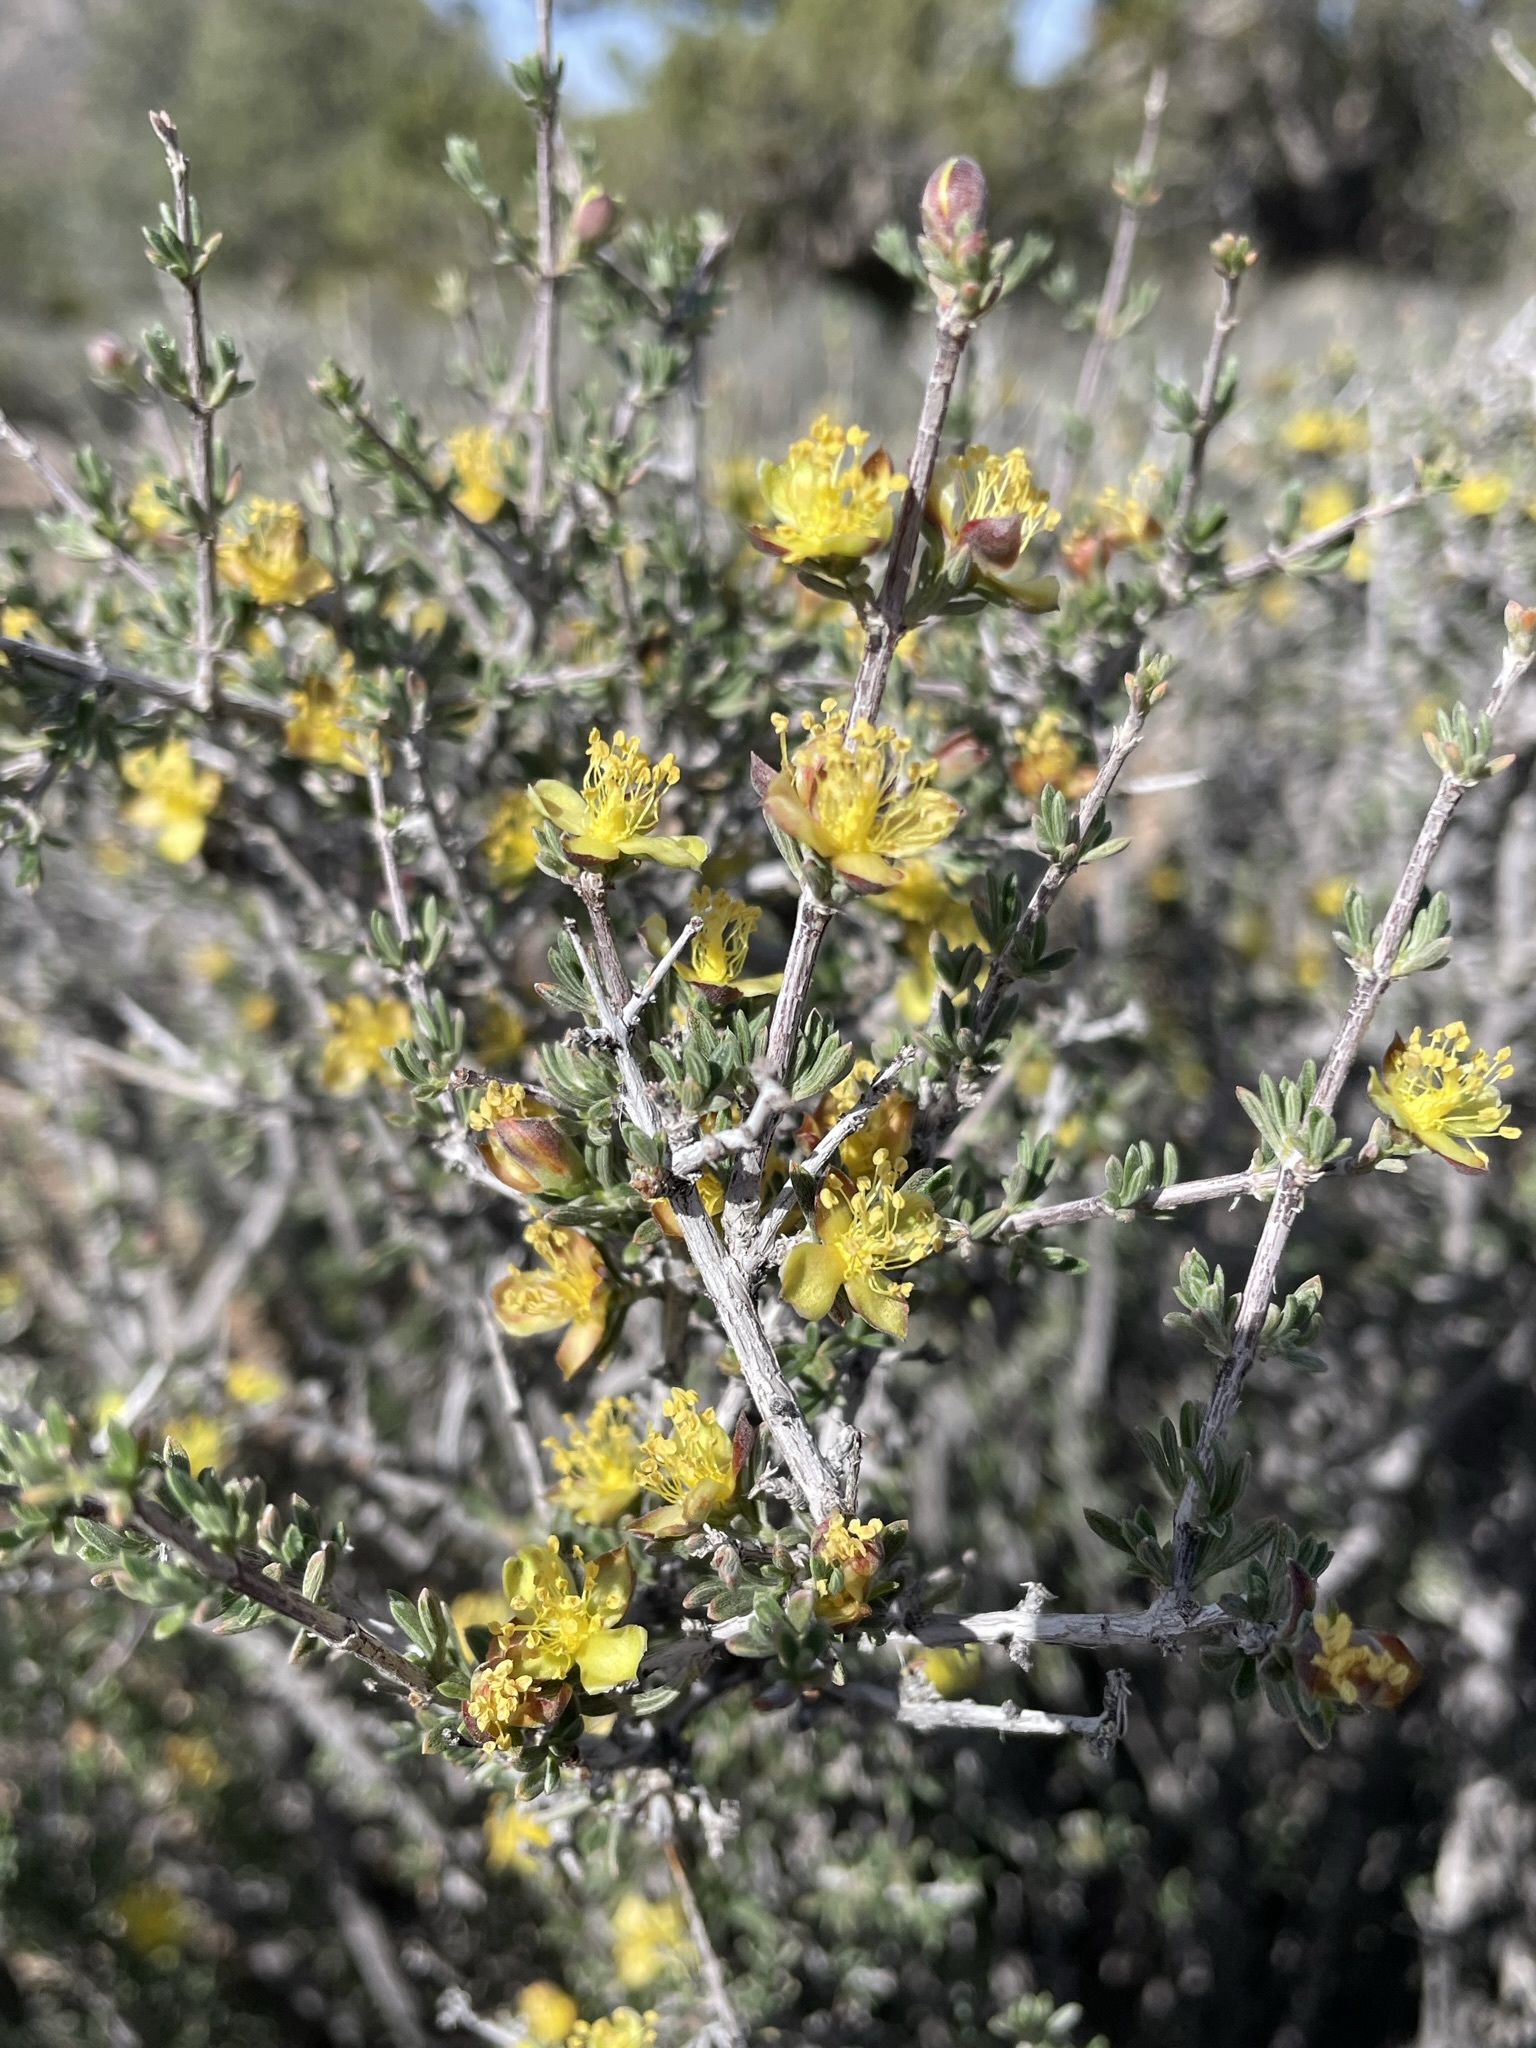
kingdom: Plantae
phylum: Tracheophyta
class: Magnoliopsida
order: Rosales
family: Rosaceae
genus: Coleogyne
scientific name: Coleogyne ramosissima
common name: Blackbrush
